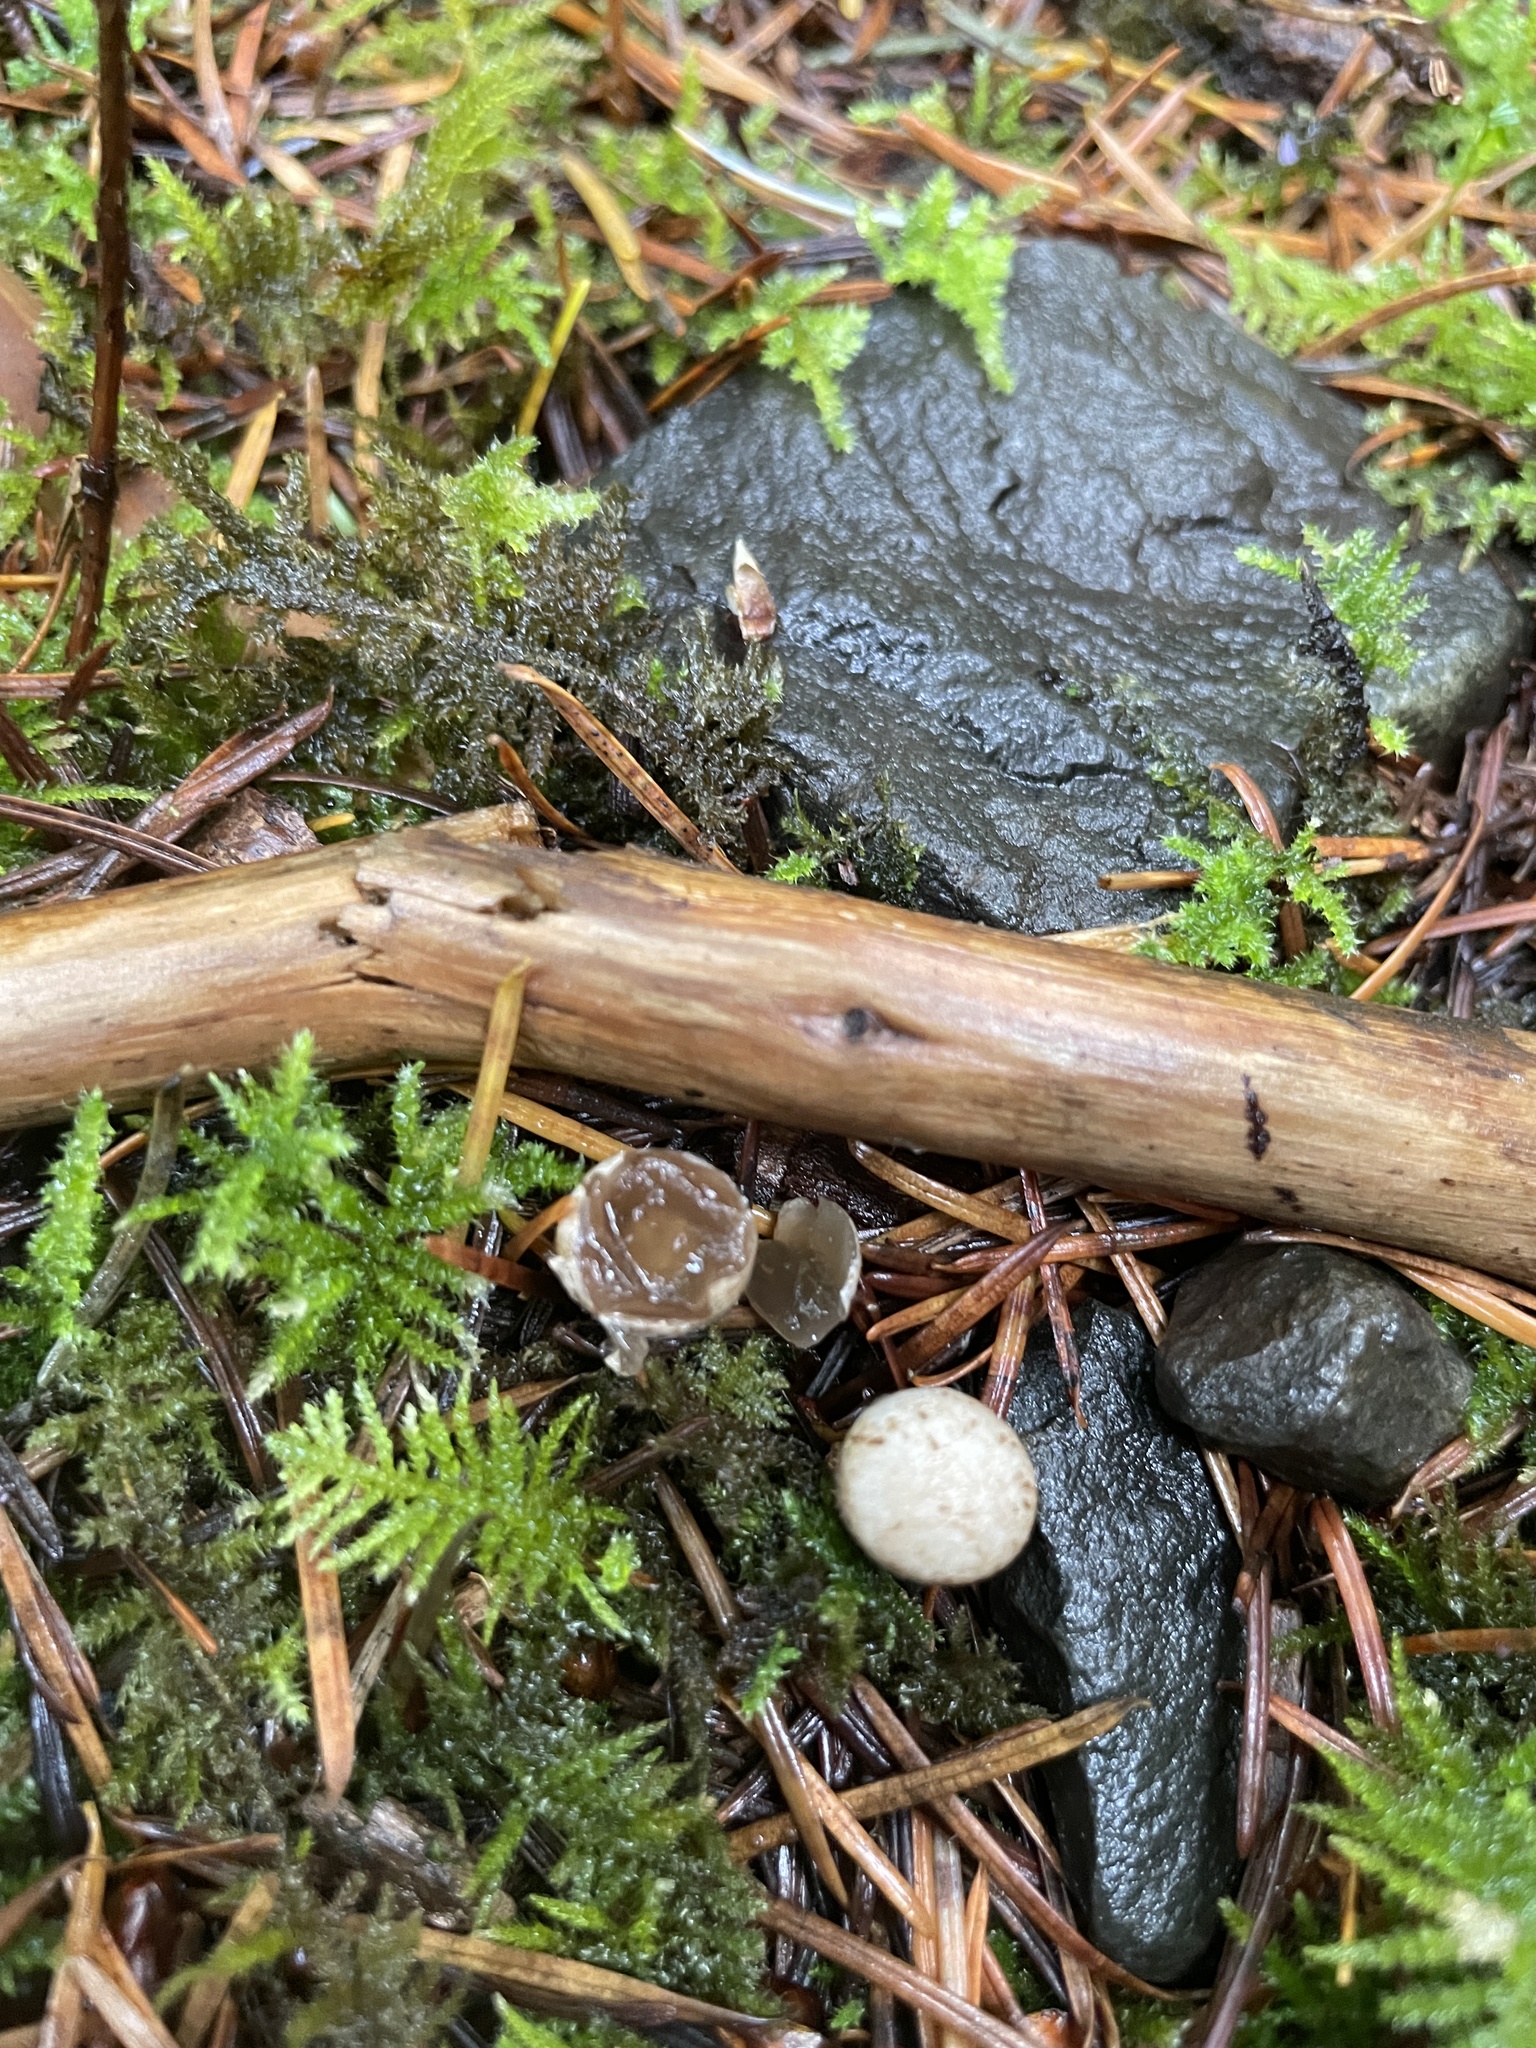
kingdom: Fungi
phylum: Basidiomycota
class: Agaricomycetes
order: Agaricales
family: Agaricaceae
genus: Nidula
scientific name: Nidula candida
